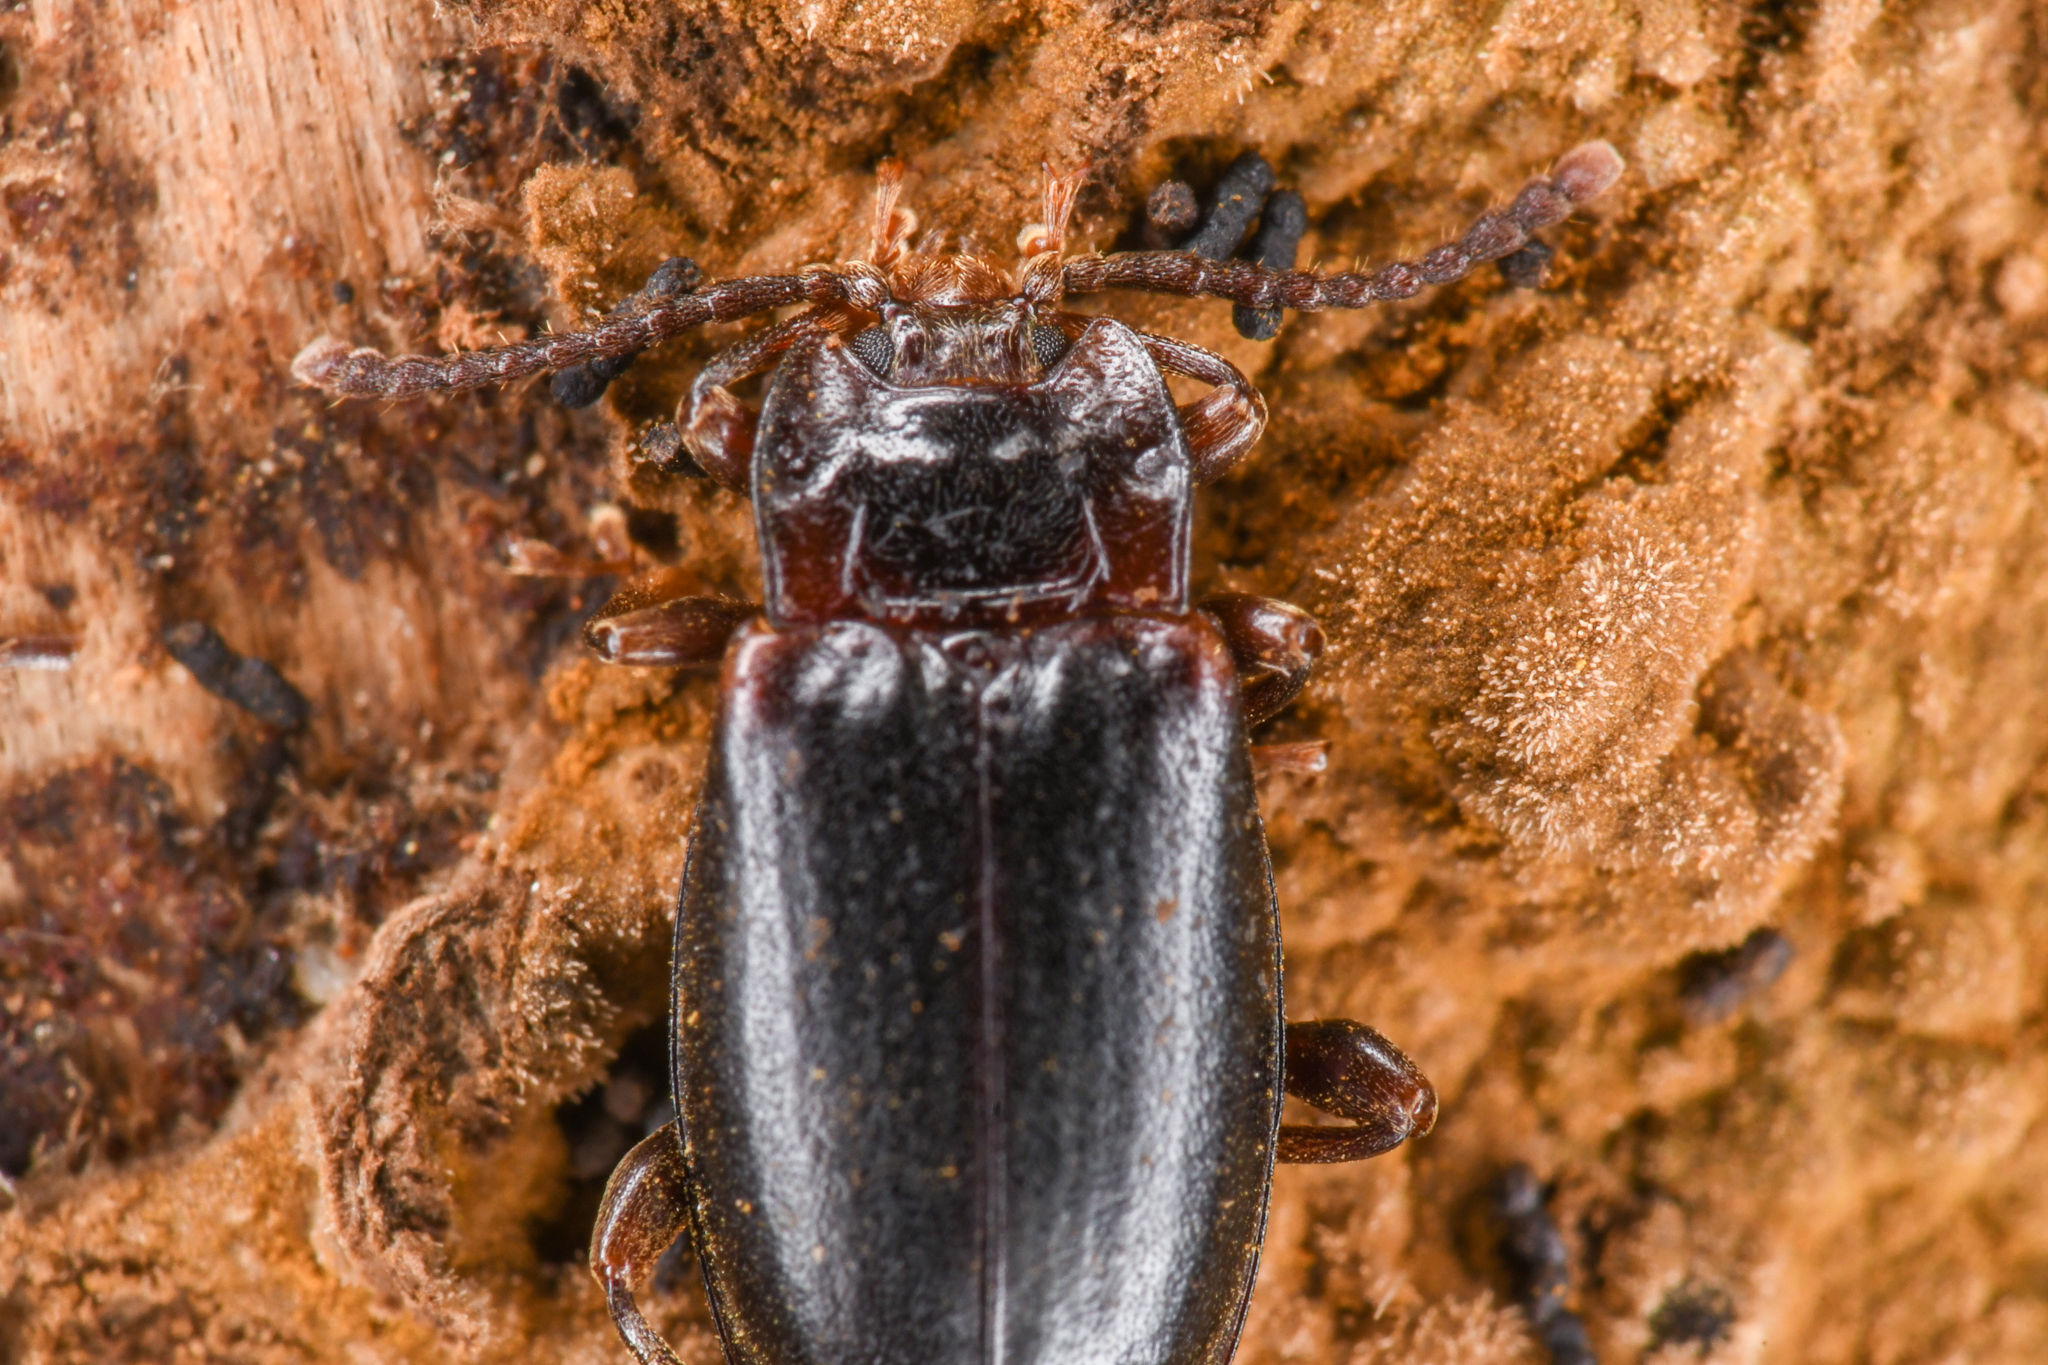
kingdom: Animalia
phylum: Arthropoda
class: Insecta
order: Coleoptera
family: Endomychidae
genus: Aphorista
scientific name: Aphorista morosa
